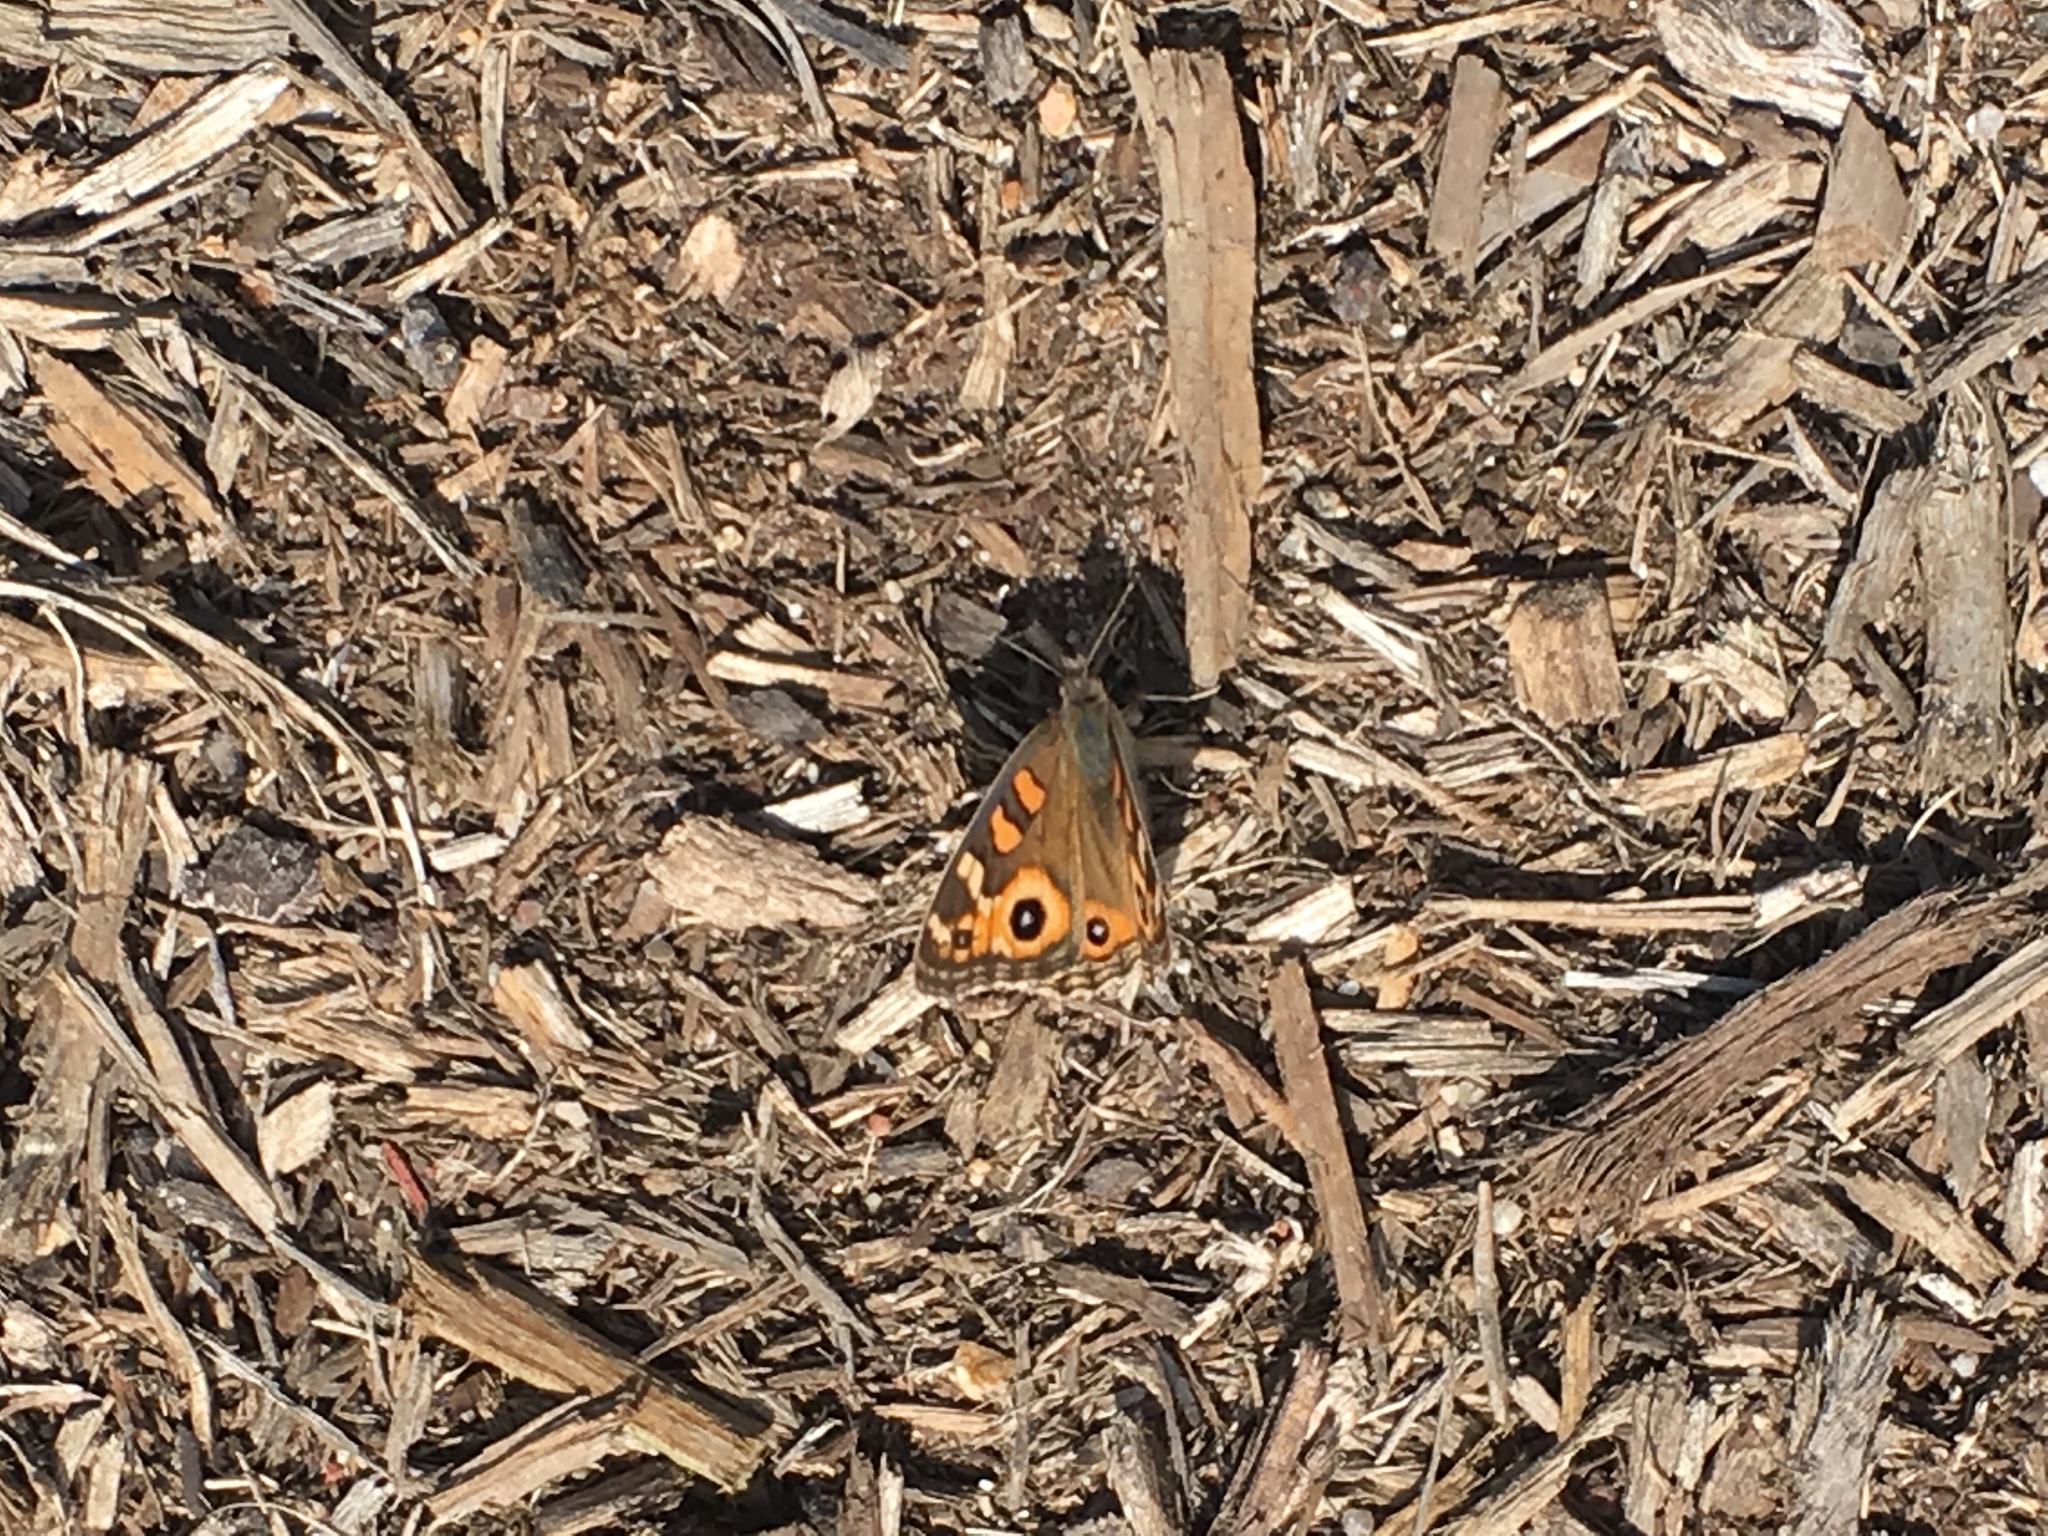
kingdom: Animalia
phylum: Arthropoda
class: Insecta
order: Lepidoptera
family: Nymphalidae
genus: Junonia
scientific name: Junonia villida
